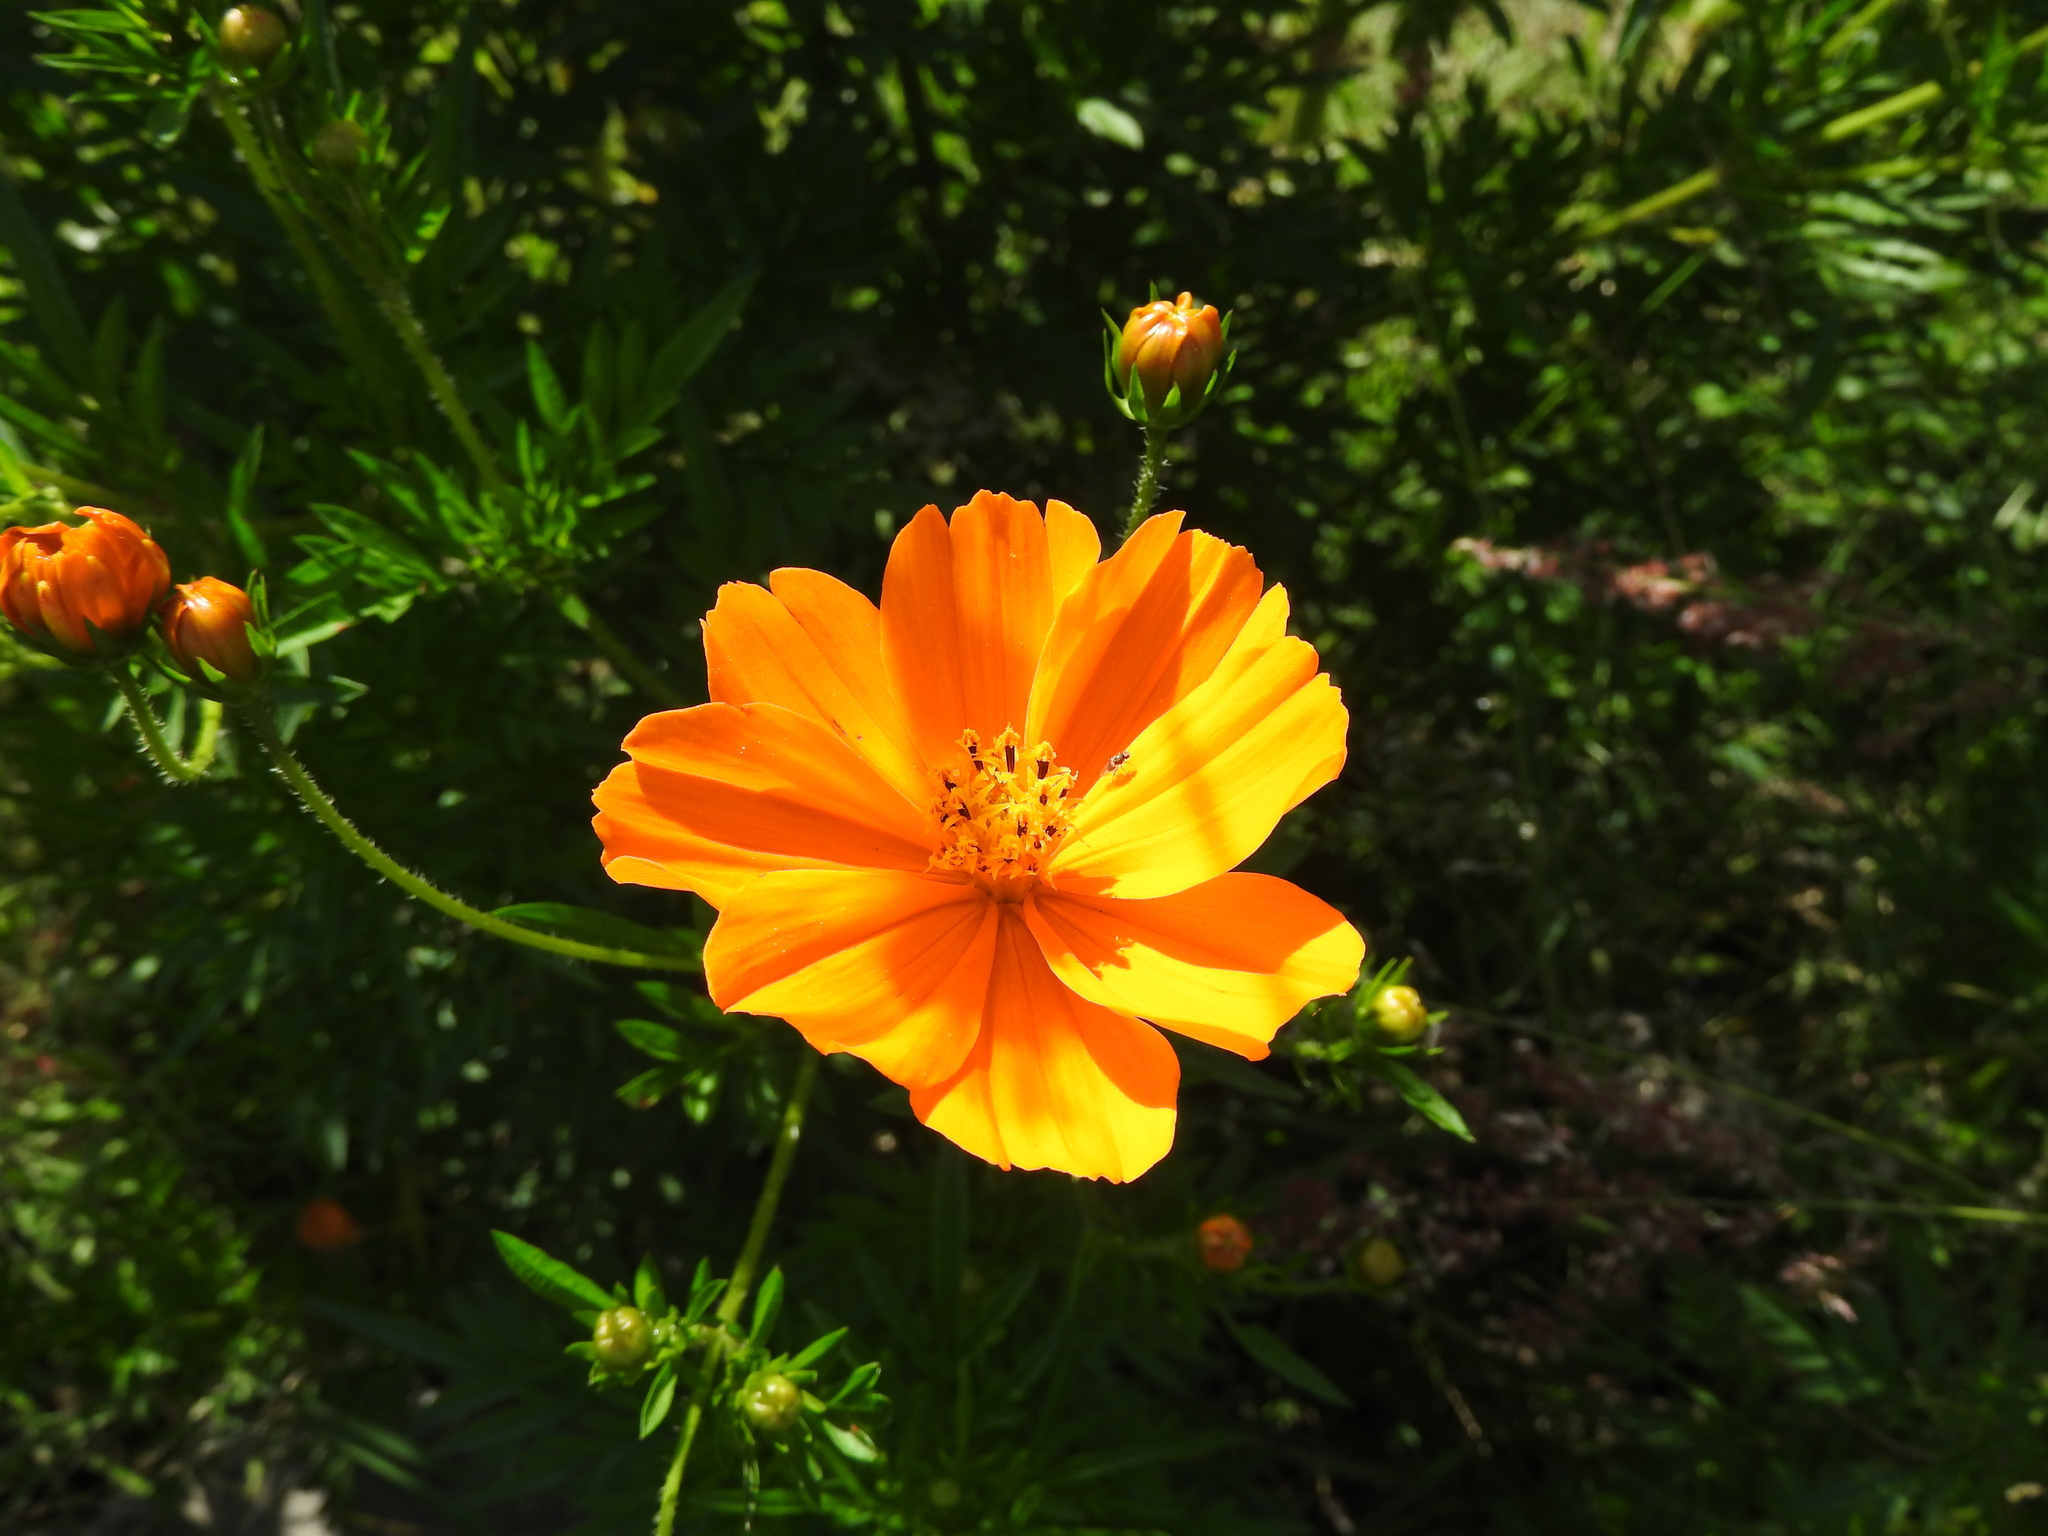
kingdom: Plantae
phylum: Tracheophyta
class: Magnoliopsida
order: Asterales
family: Asteraceae
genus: Cosmos
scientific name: Cosmos sulphureus
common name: Sulphur cosmos
